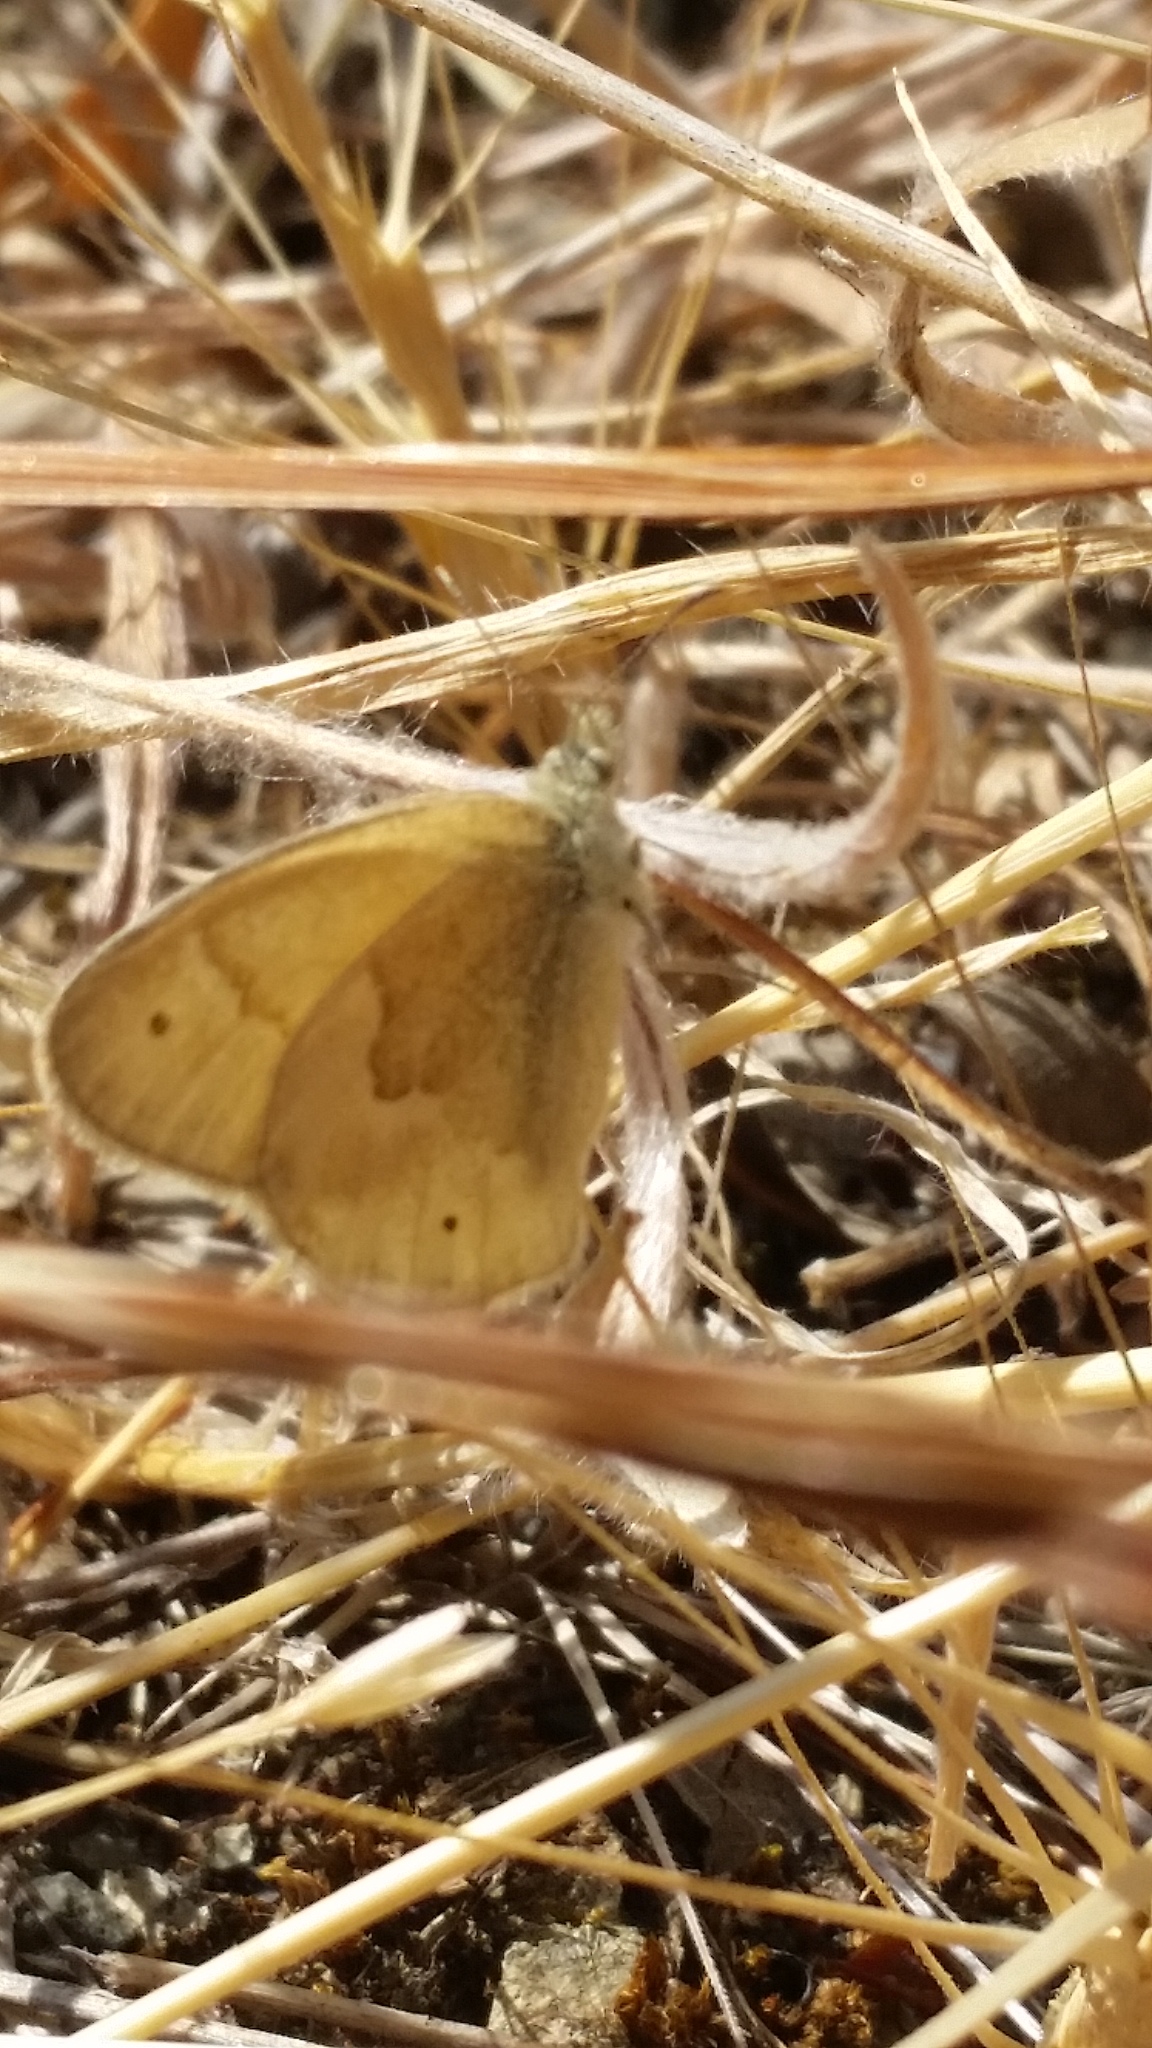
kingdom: Animalia
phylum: Arthropoda
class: Insecta
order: Lepidoptera
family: Nymphalidae
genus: Coenonympha
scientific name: Coenonympha california
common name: Common ringlet
